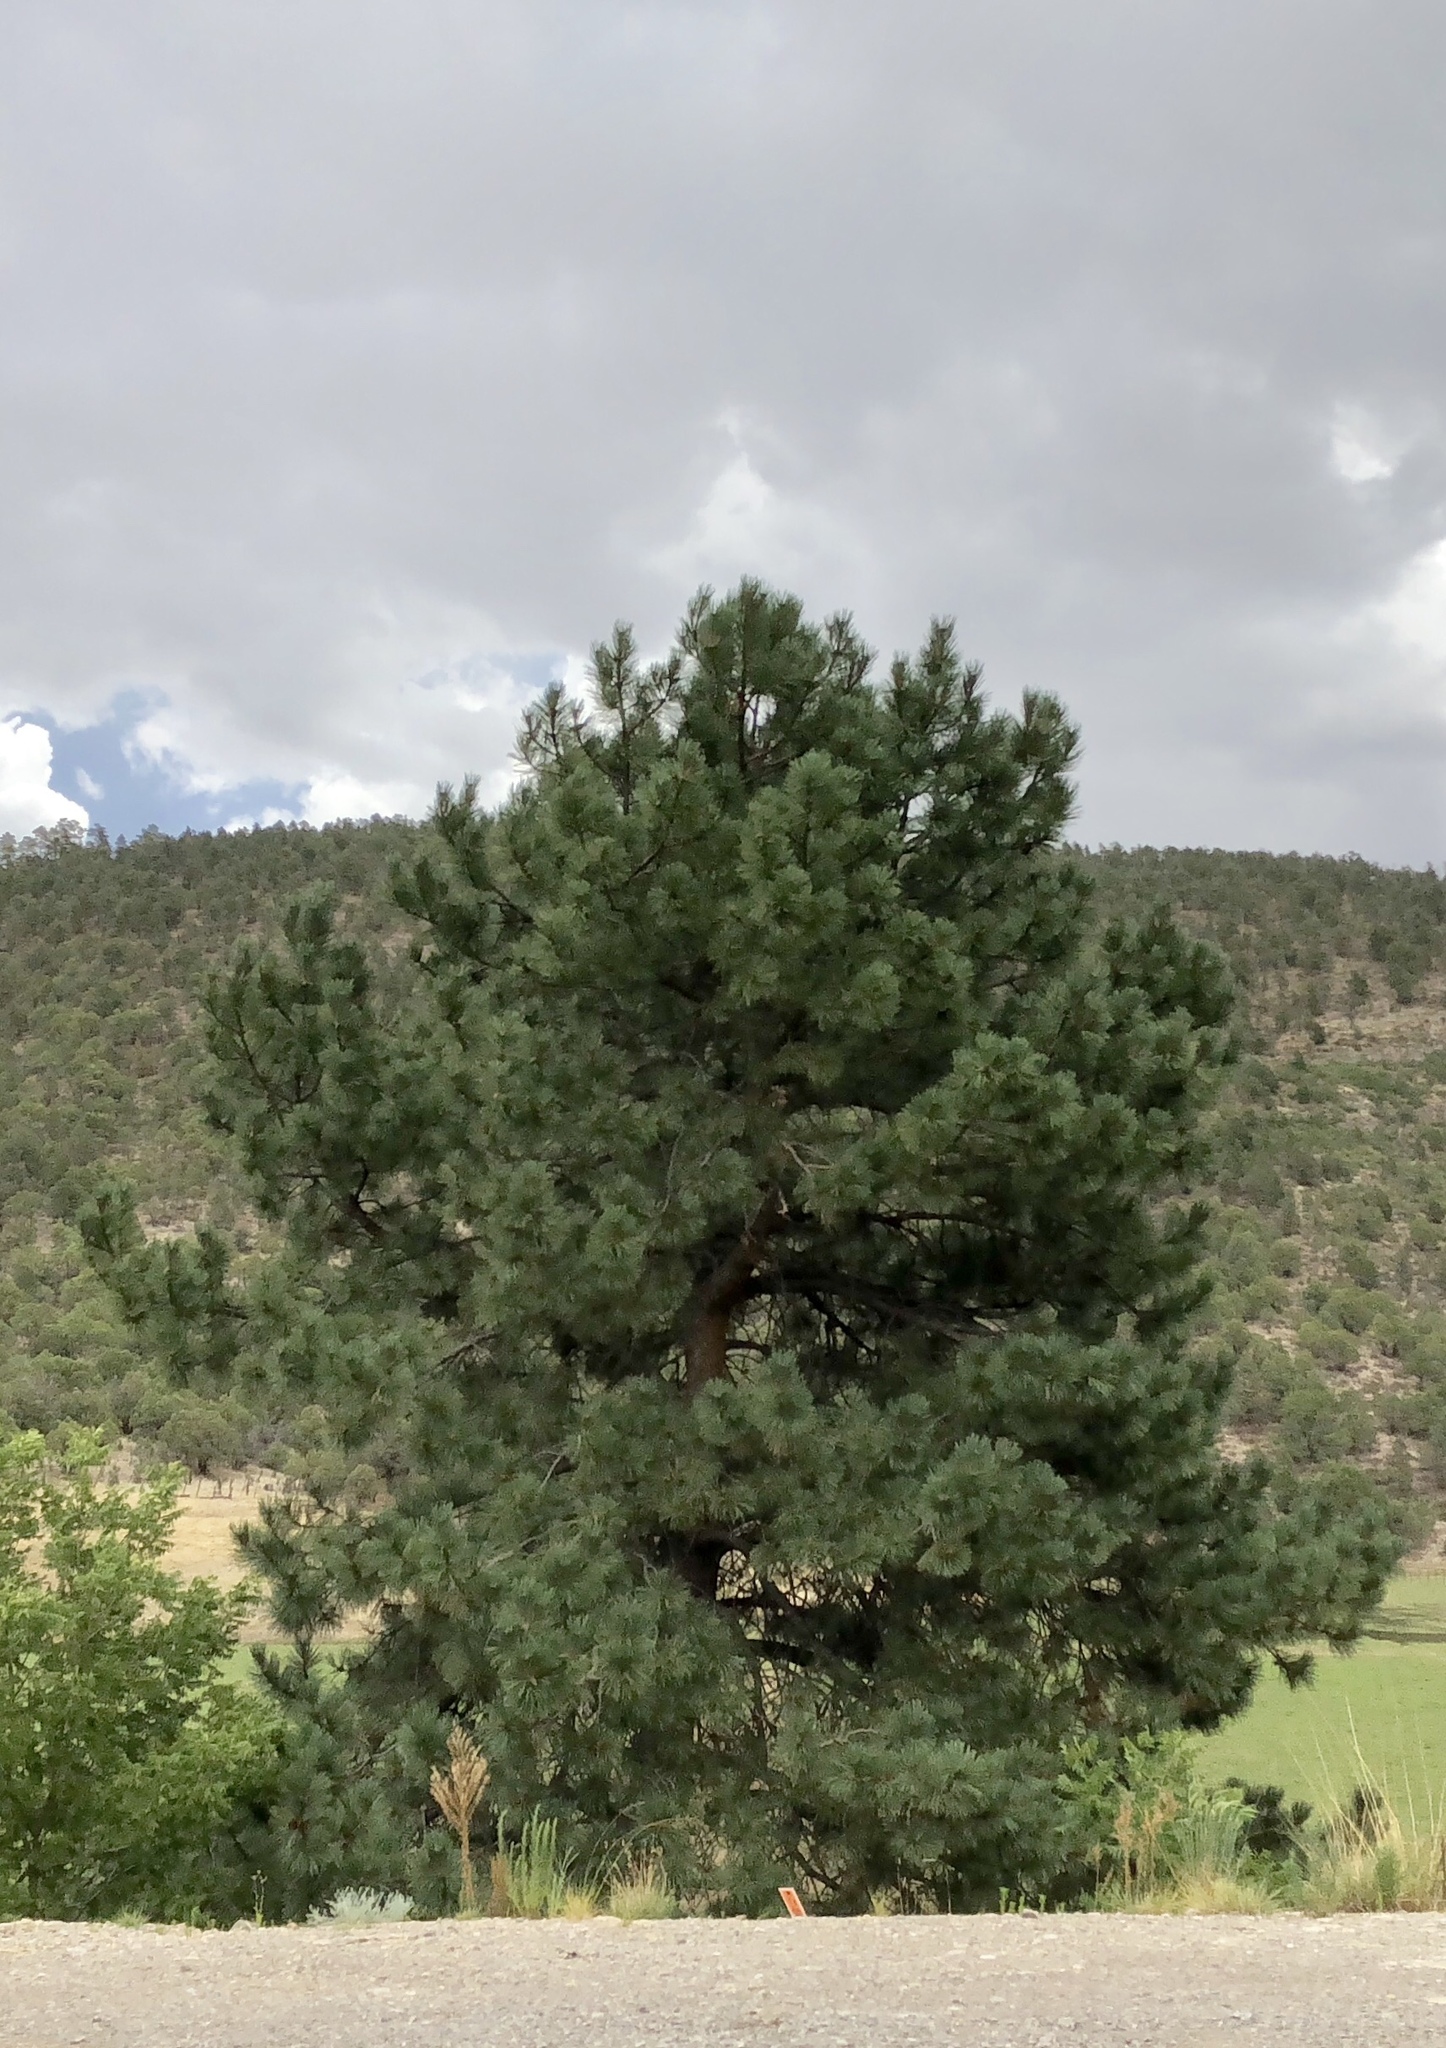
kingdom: Plantae
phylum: Tracheophyta
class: Pinopsida
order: Pinales
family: Pinaceae
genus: Pinus
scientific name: Pinus ponderosa
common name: Western yellow-pine
